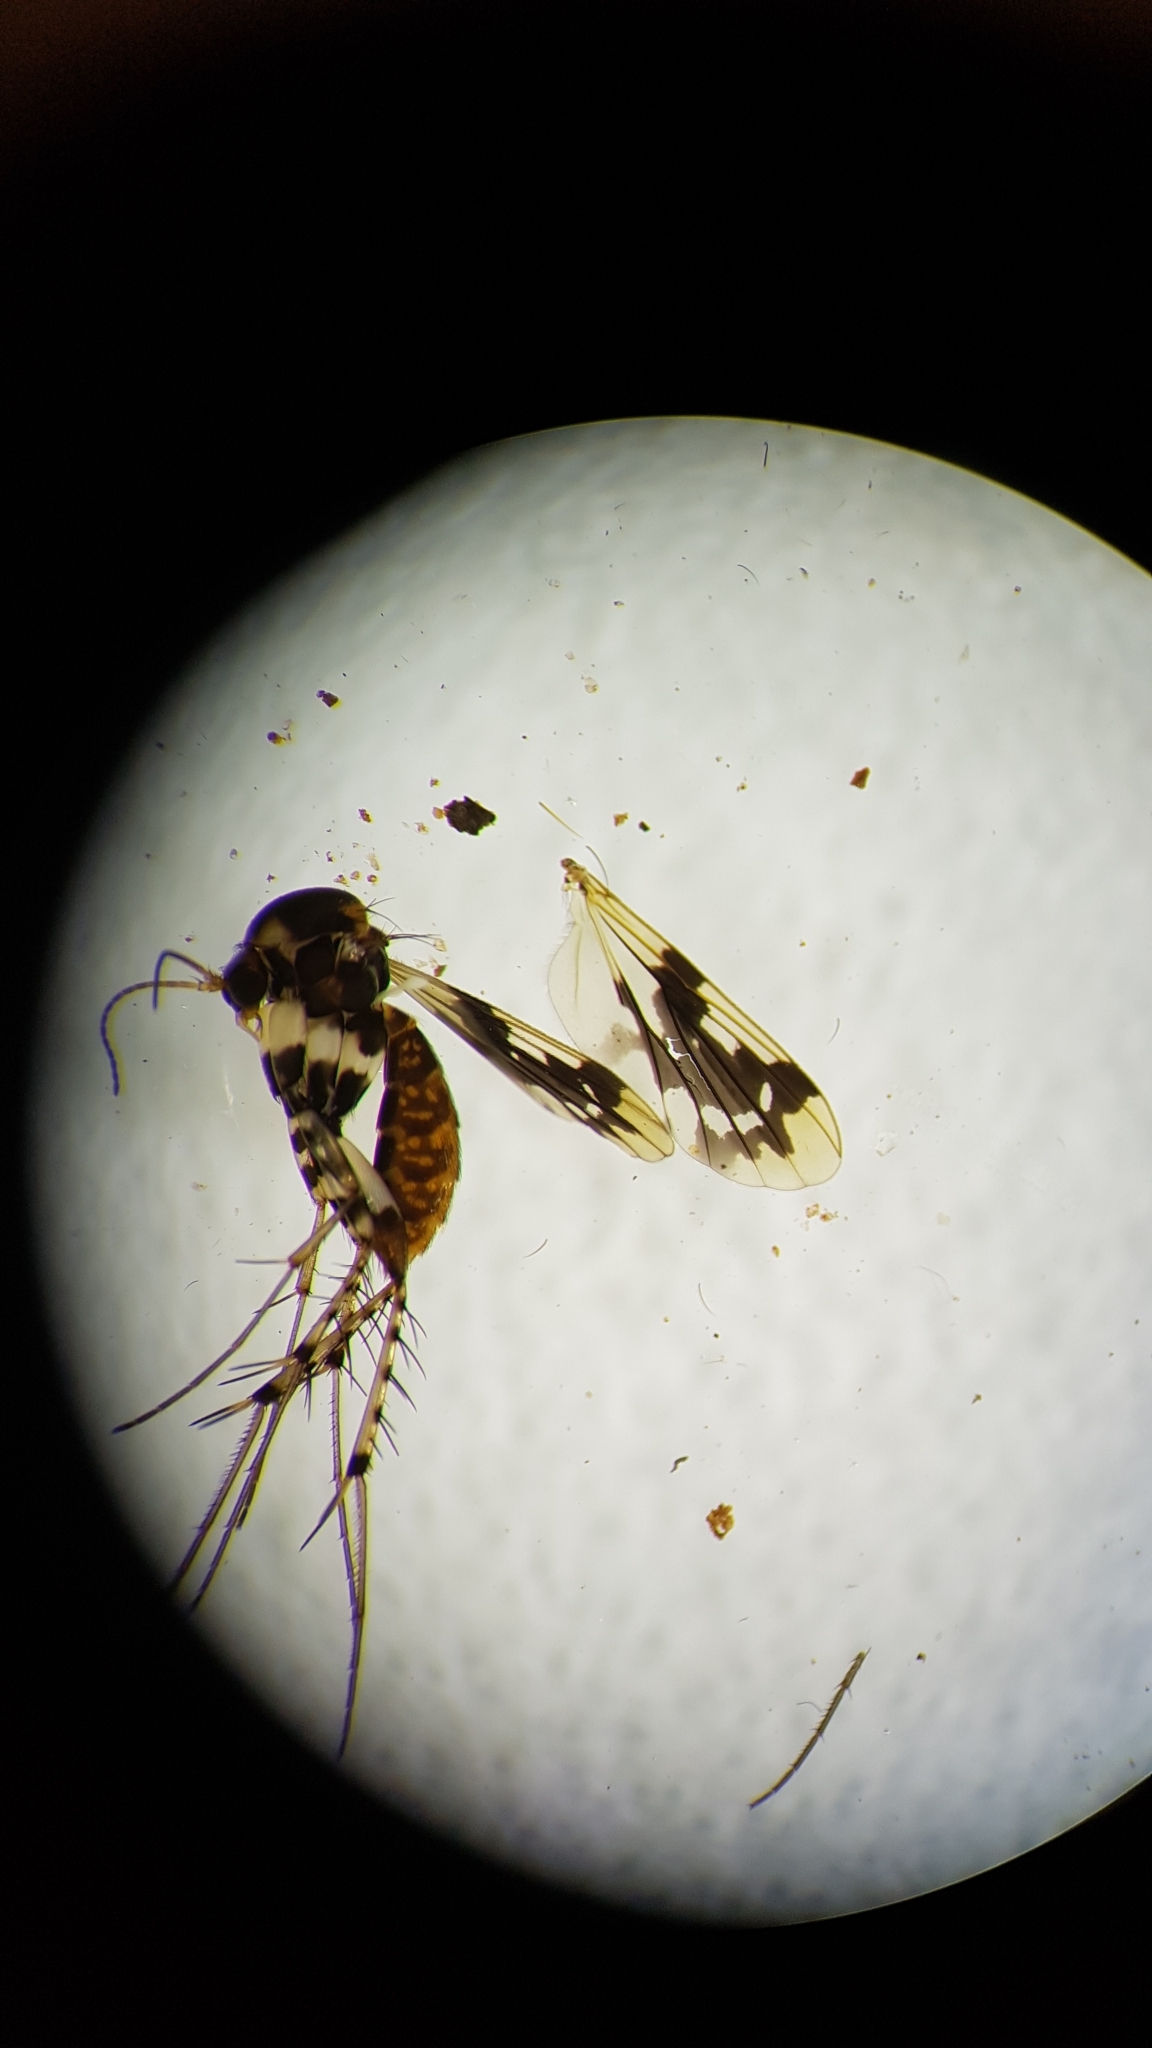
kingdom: Animalia
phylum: Arthropoda
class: Insecta
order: Diptera
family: Mycetophilidae
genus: Mycetophila
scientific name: Mycetophila ornatissima
